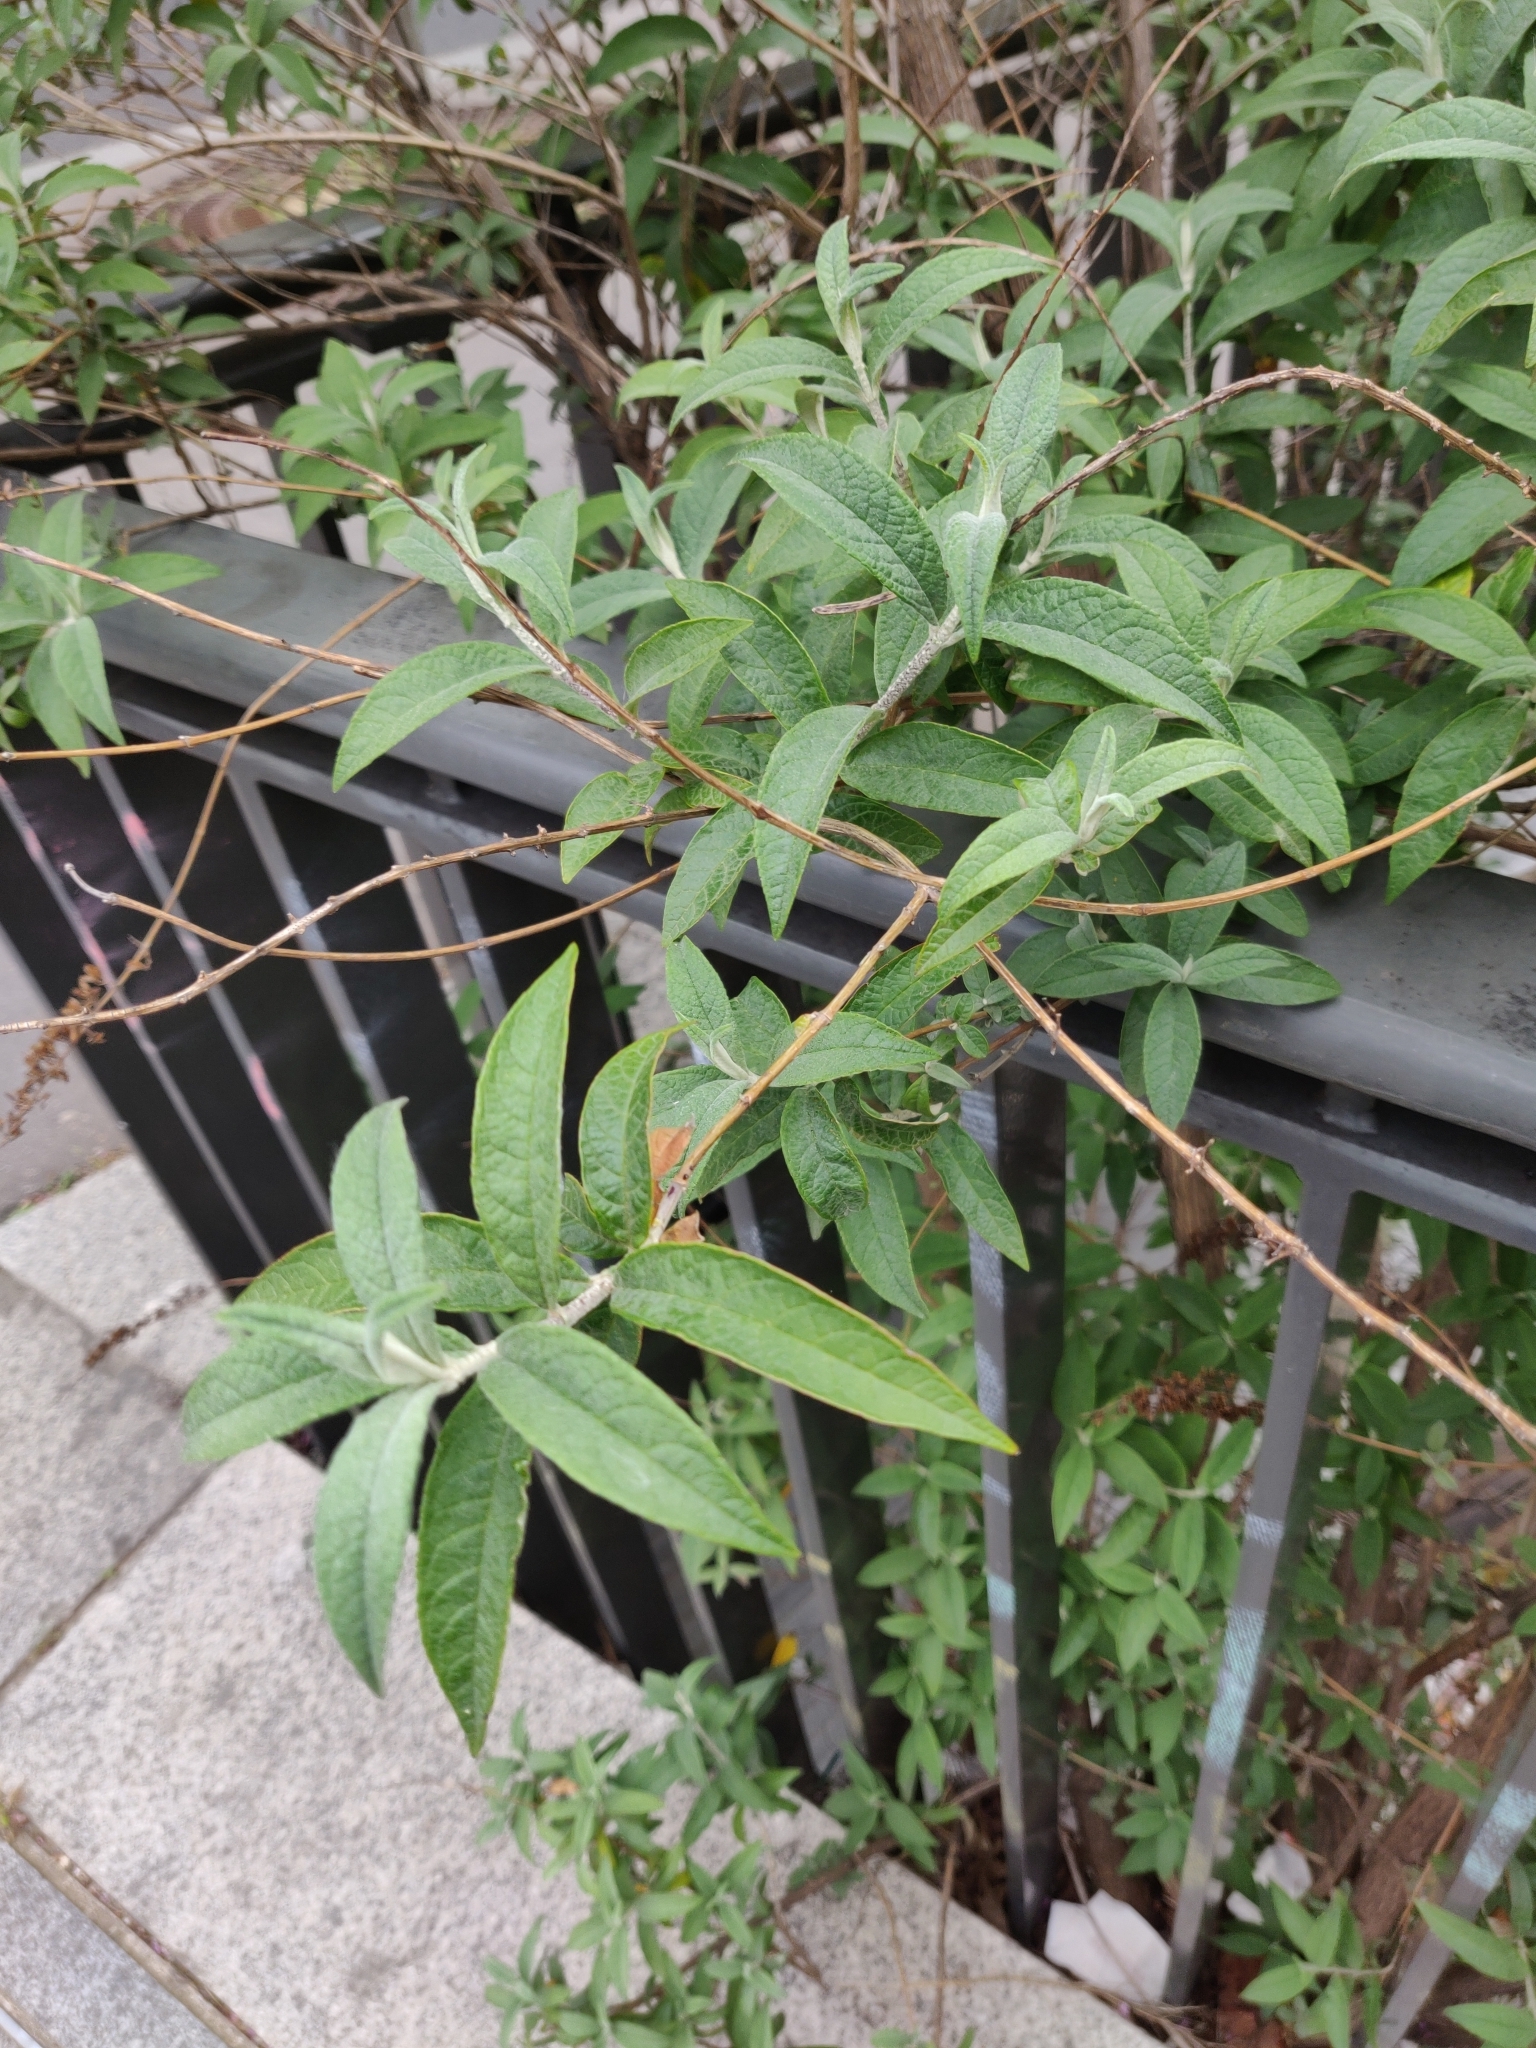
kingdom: Plantae
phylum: Tracheophyta
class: Magnoliopsida
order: Lamiales
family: Scrophulariaceae
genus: Buddleja
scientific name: Buddleja davidii
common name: Butterfly-bush
